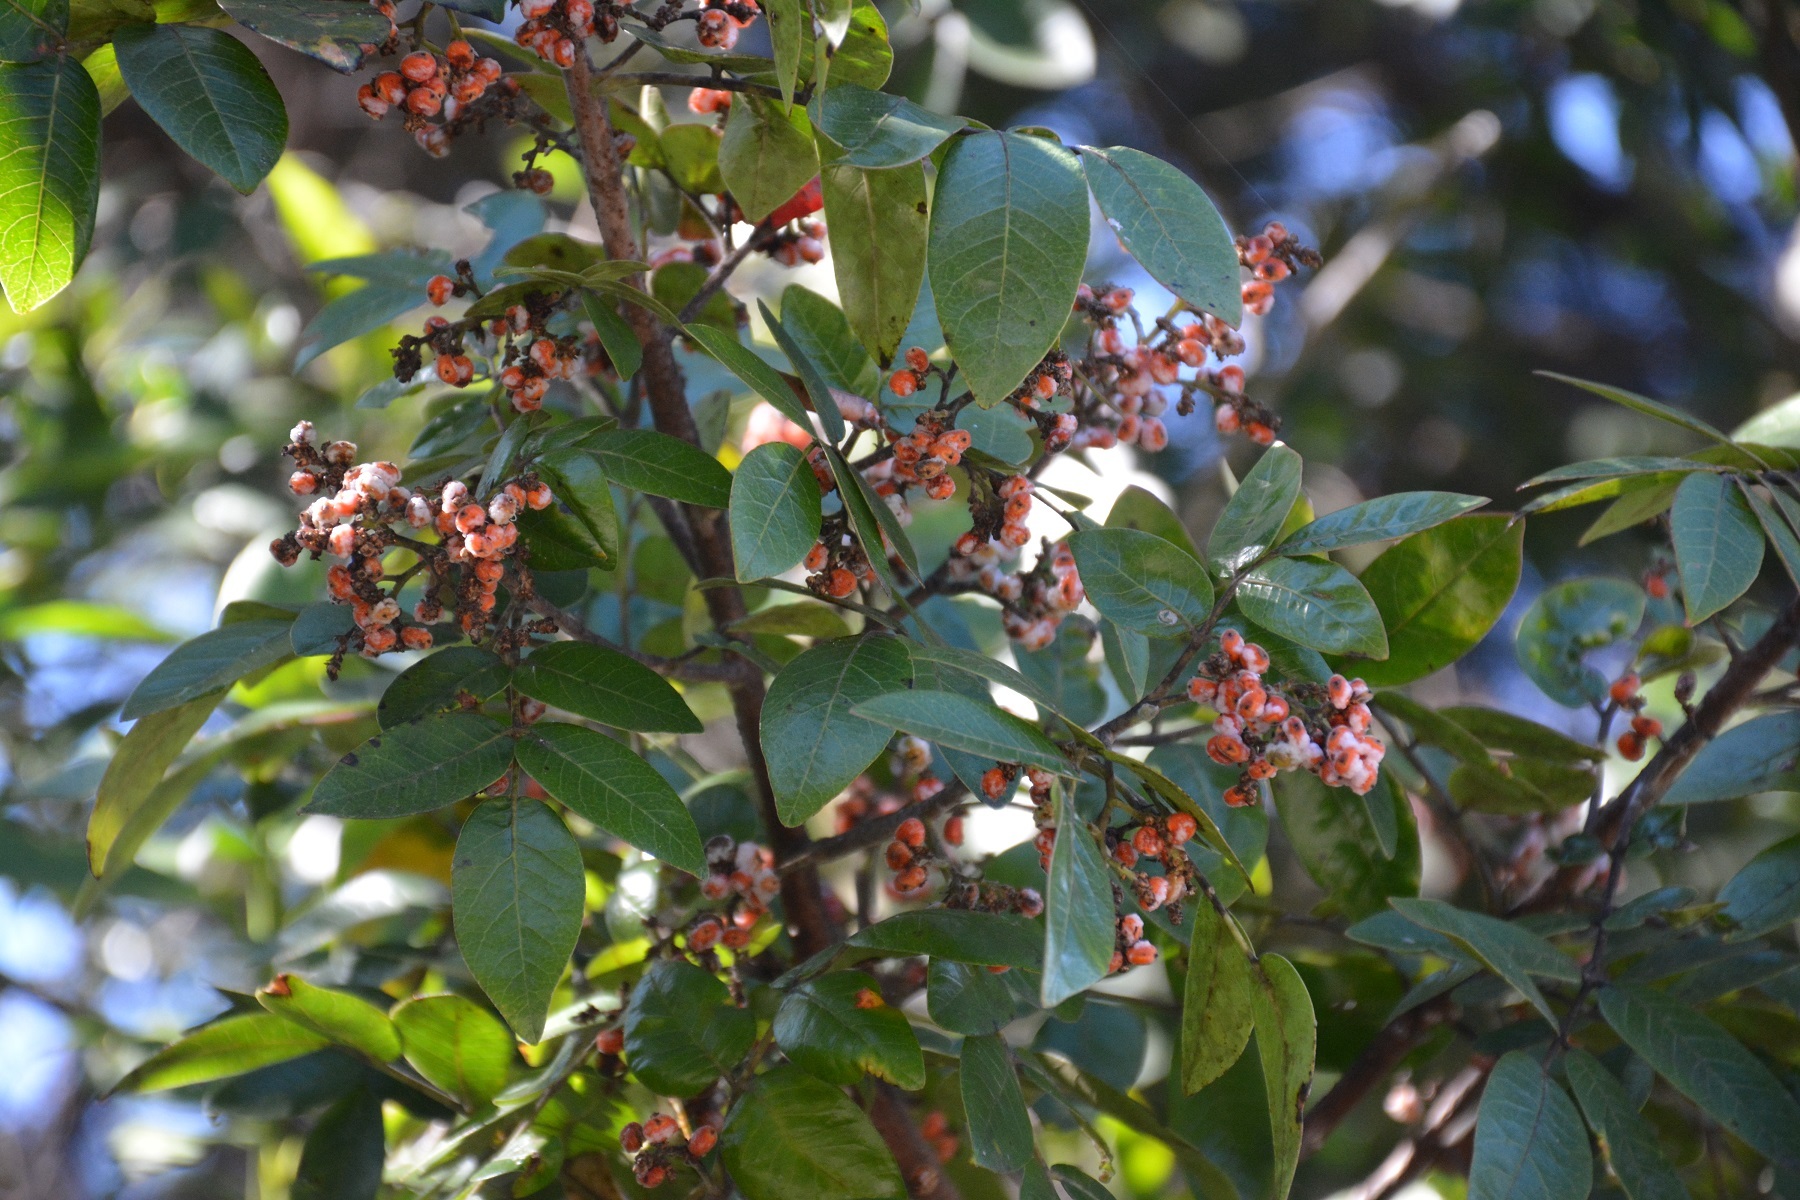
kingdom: Plantae
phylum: Tracheophyta
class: Magnoliopsida
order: Sapindales
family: Anacardiaceae
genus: Rhus
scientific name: Rhus schiedeana
